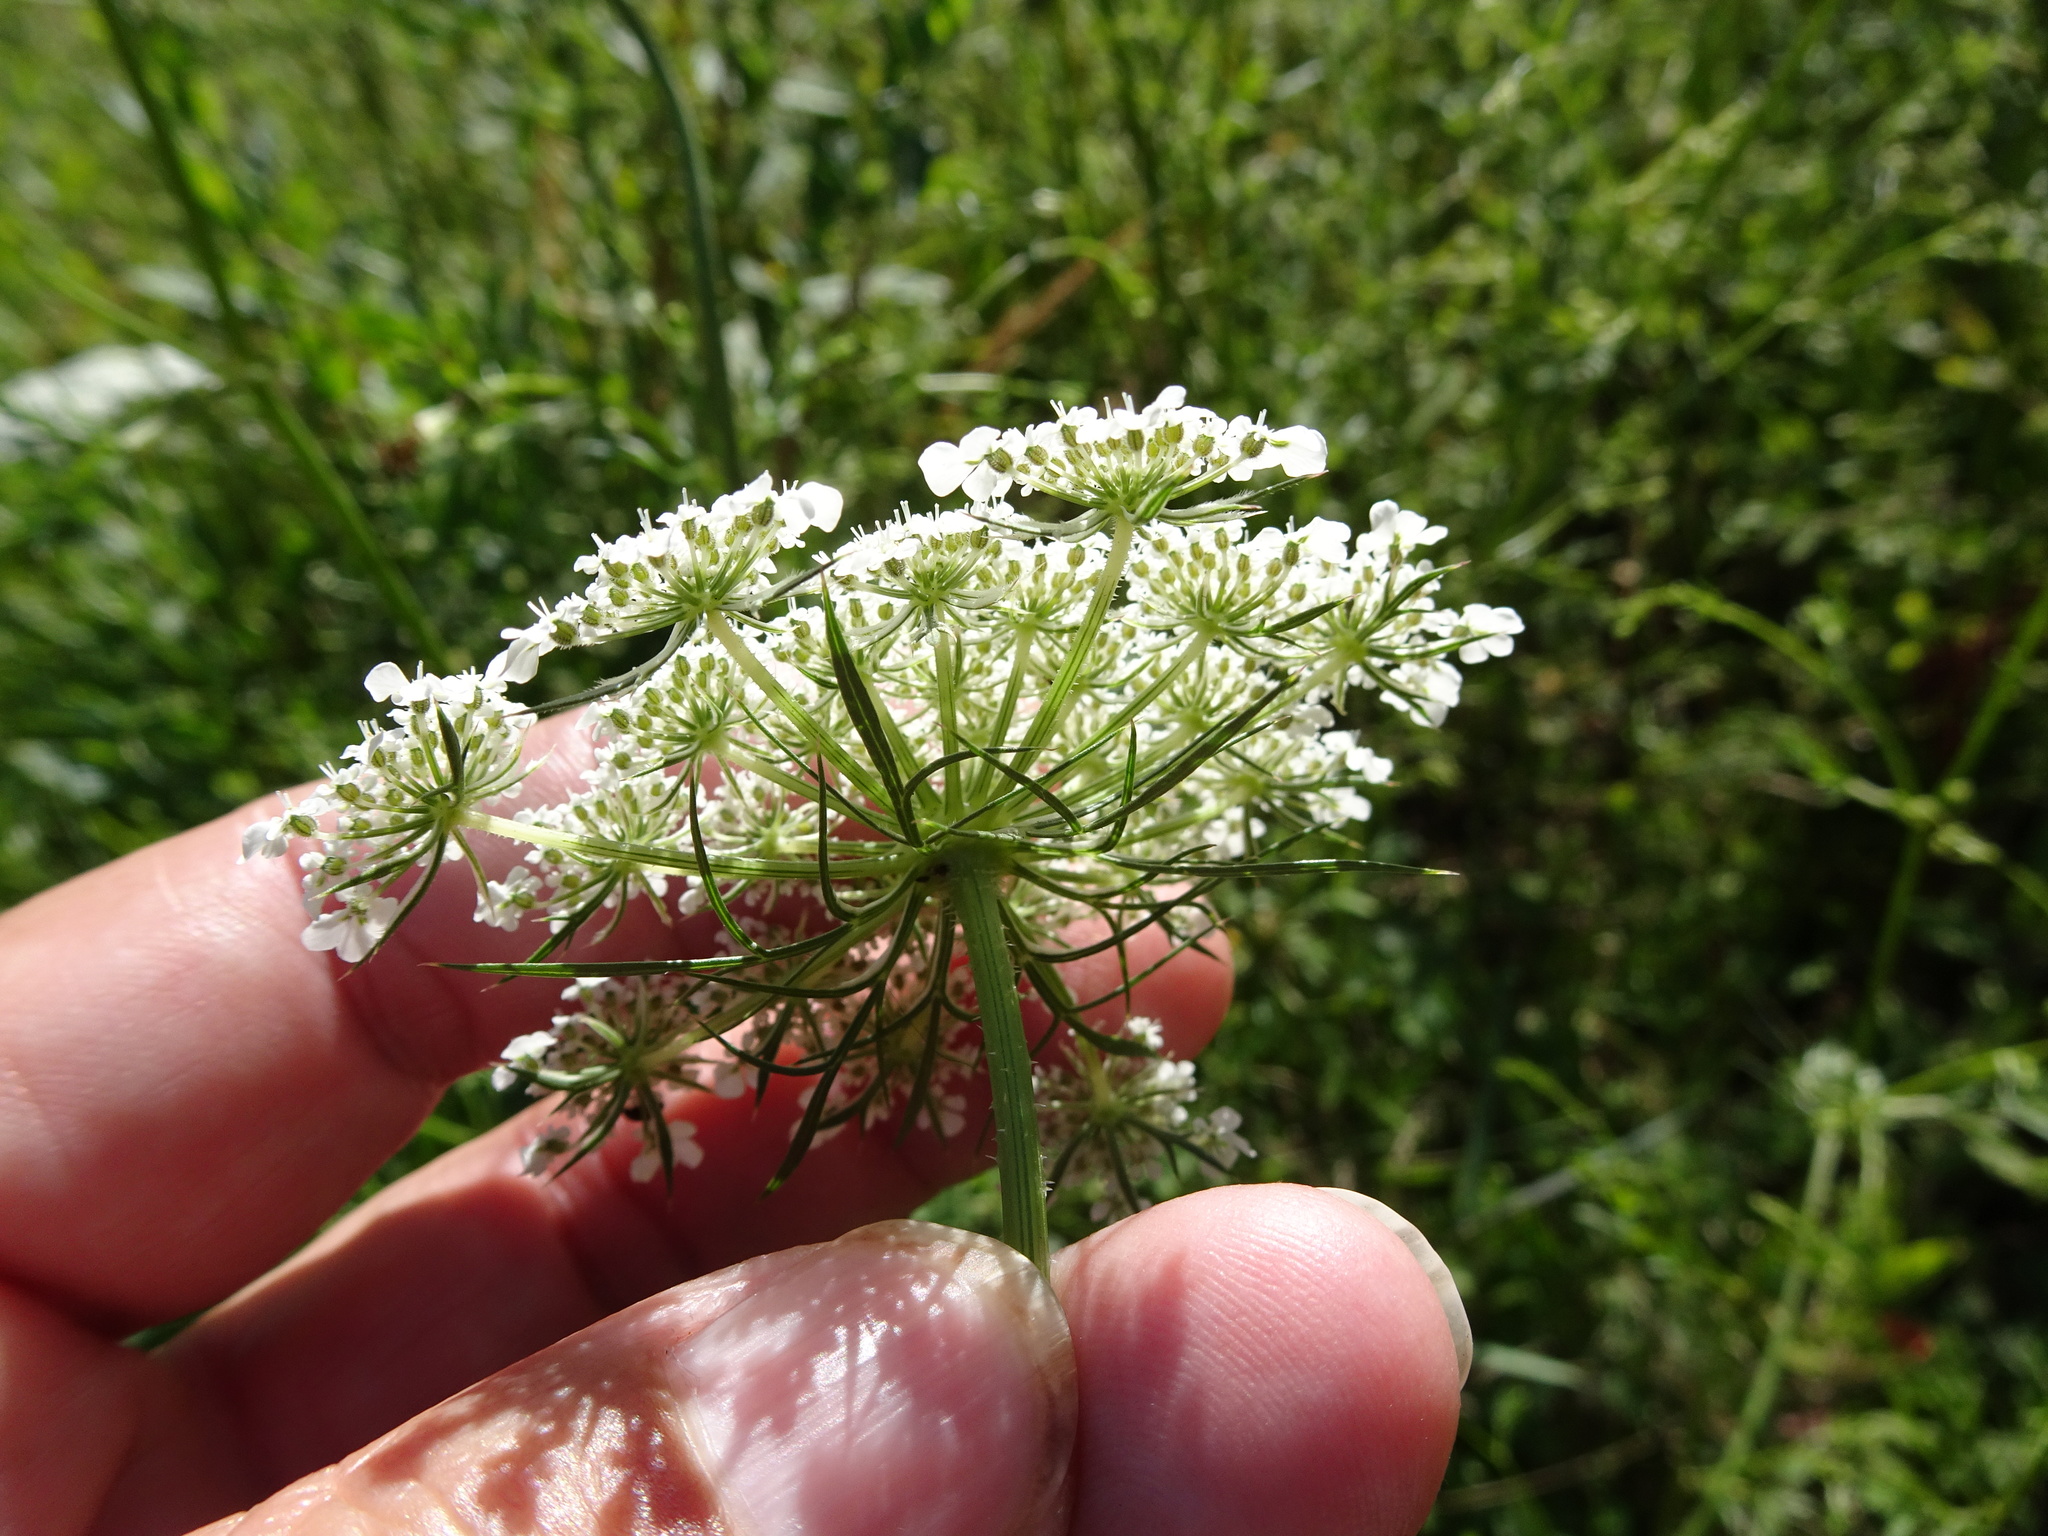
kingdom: Plantae
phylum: Tracheophyta
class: Magnoliopsida
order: Apiales
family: Apiaceae
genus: Daucus
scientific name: Daucus carota
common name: Wild carrot
